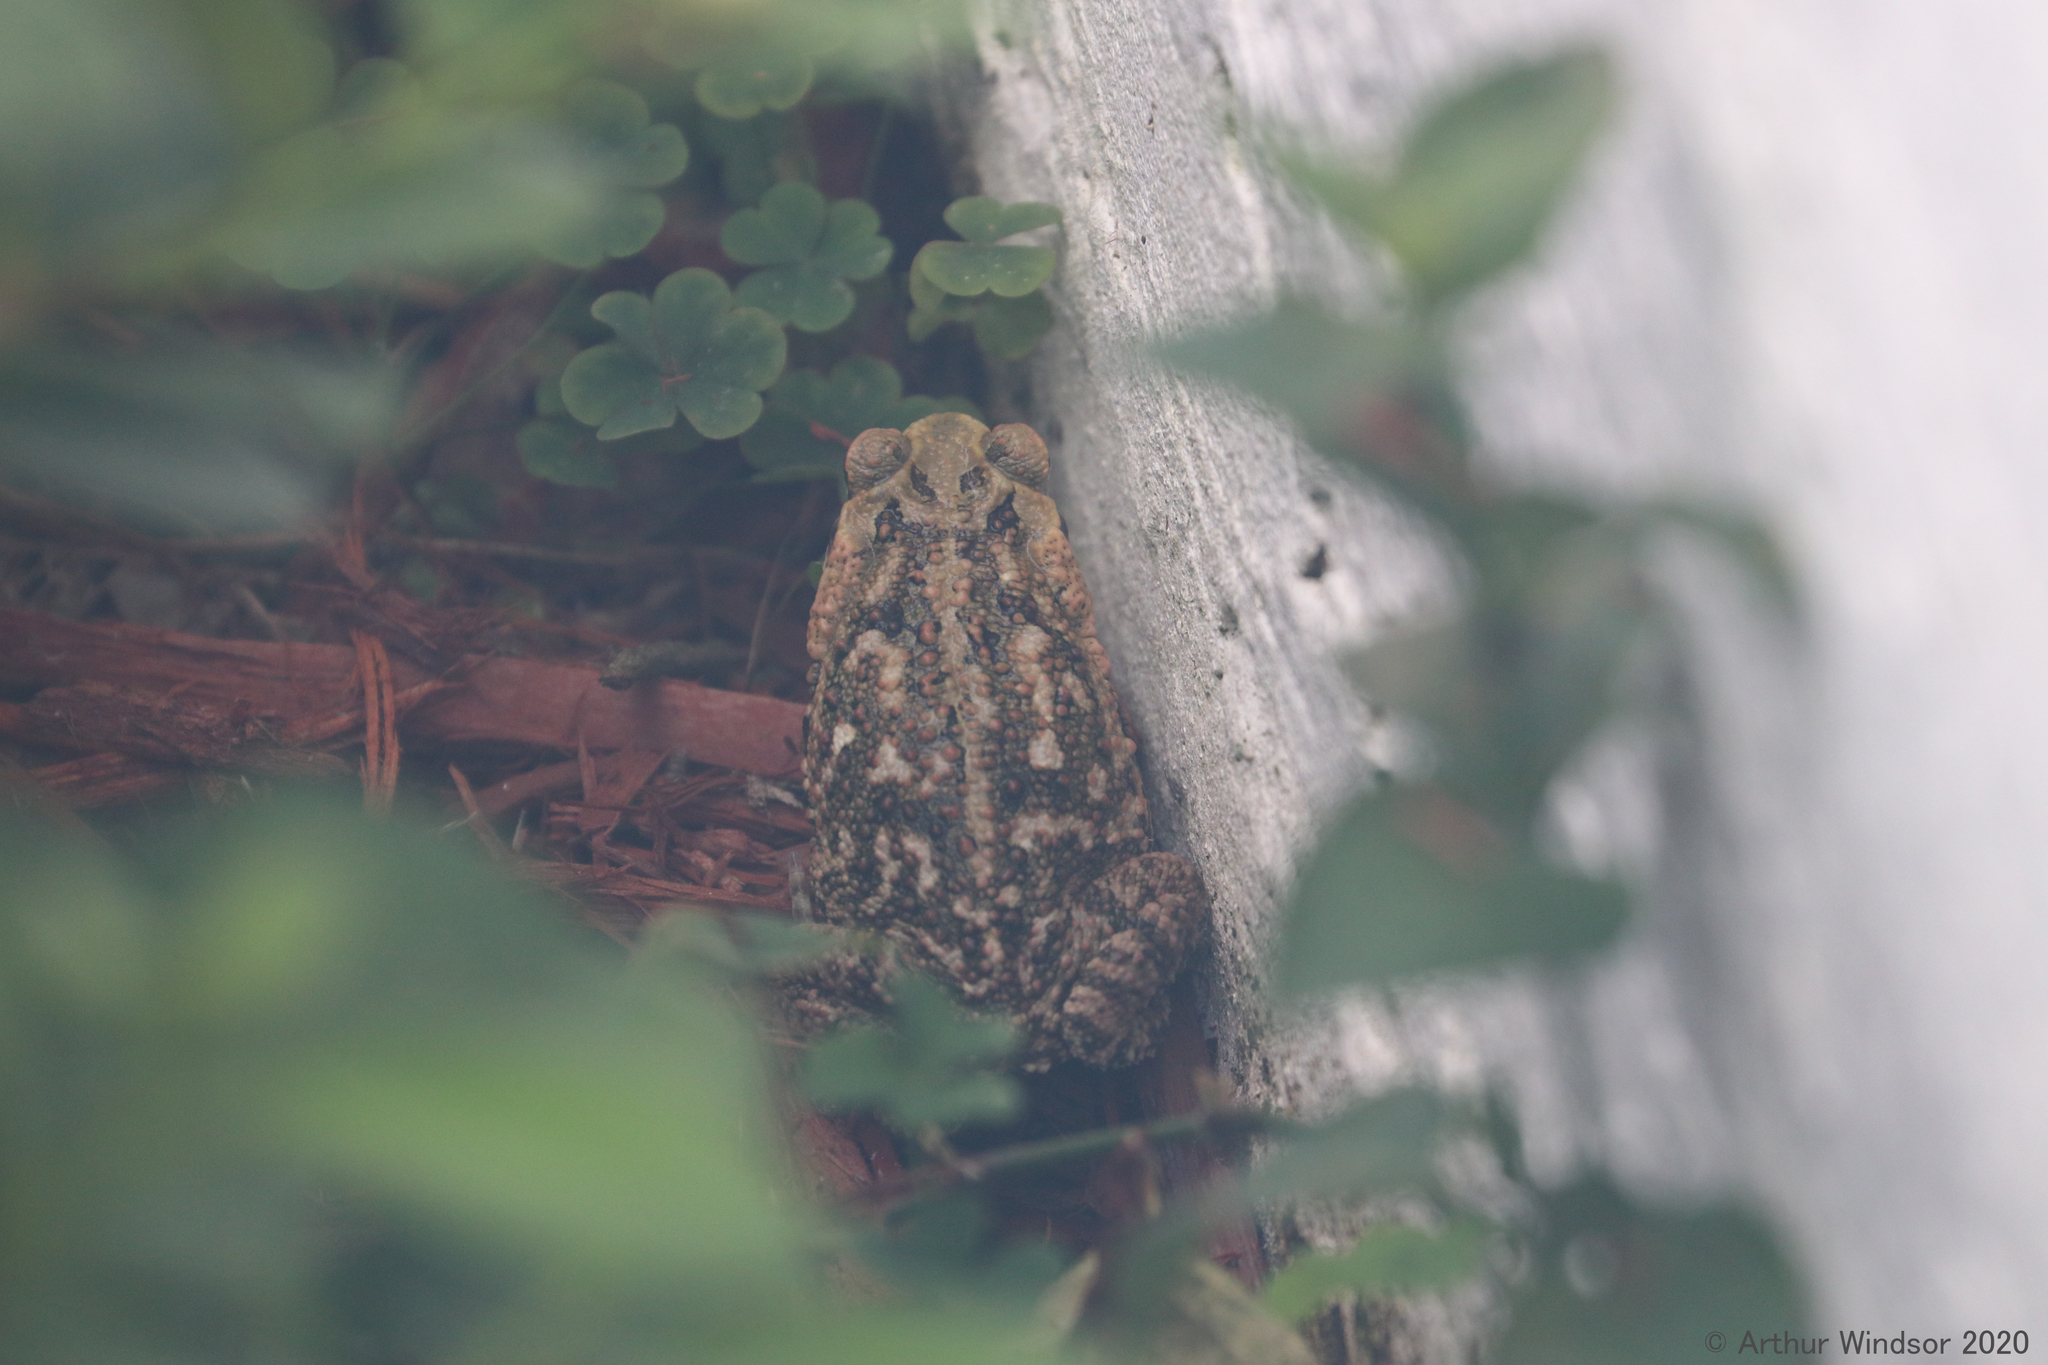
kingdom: Animalia
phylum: Chordata
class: Amphibia
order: Anura
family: Bufonidae
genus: Rhinella
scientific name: Rhinella marina
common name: Cane toad
